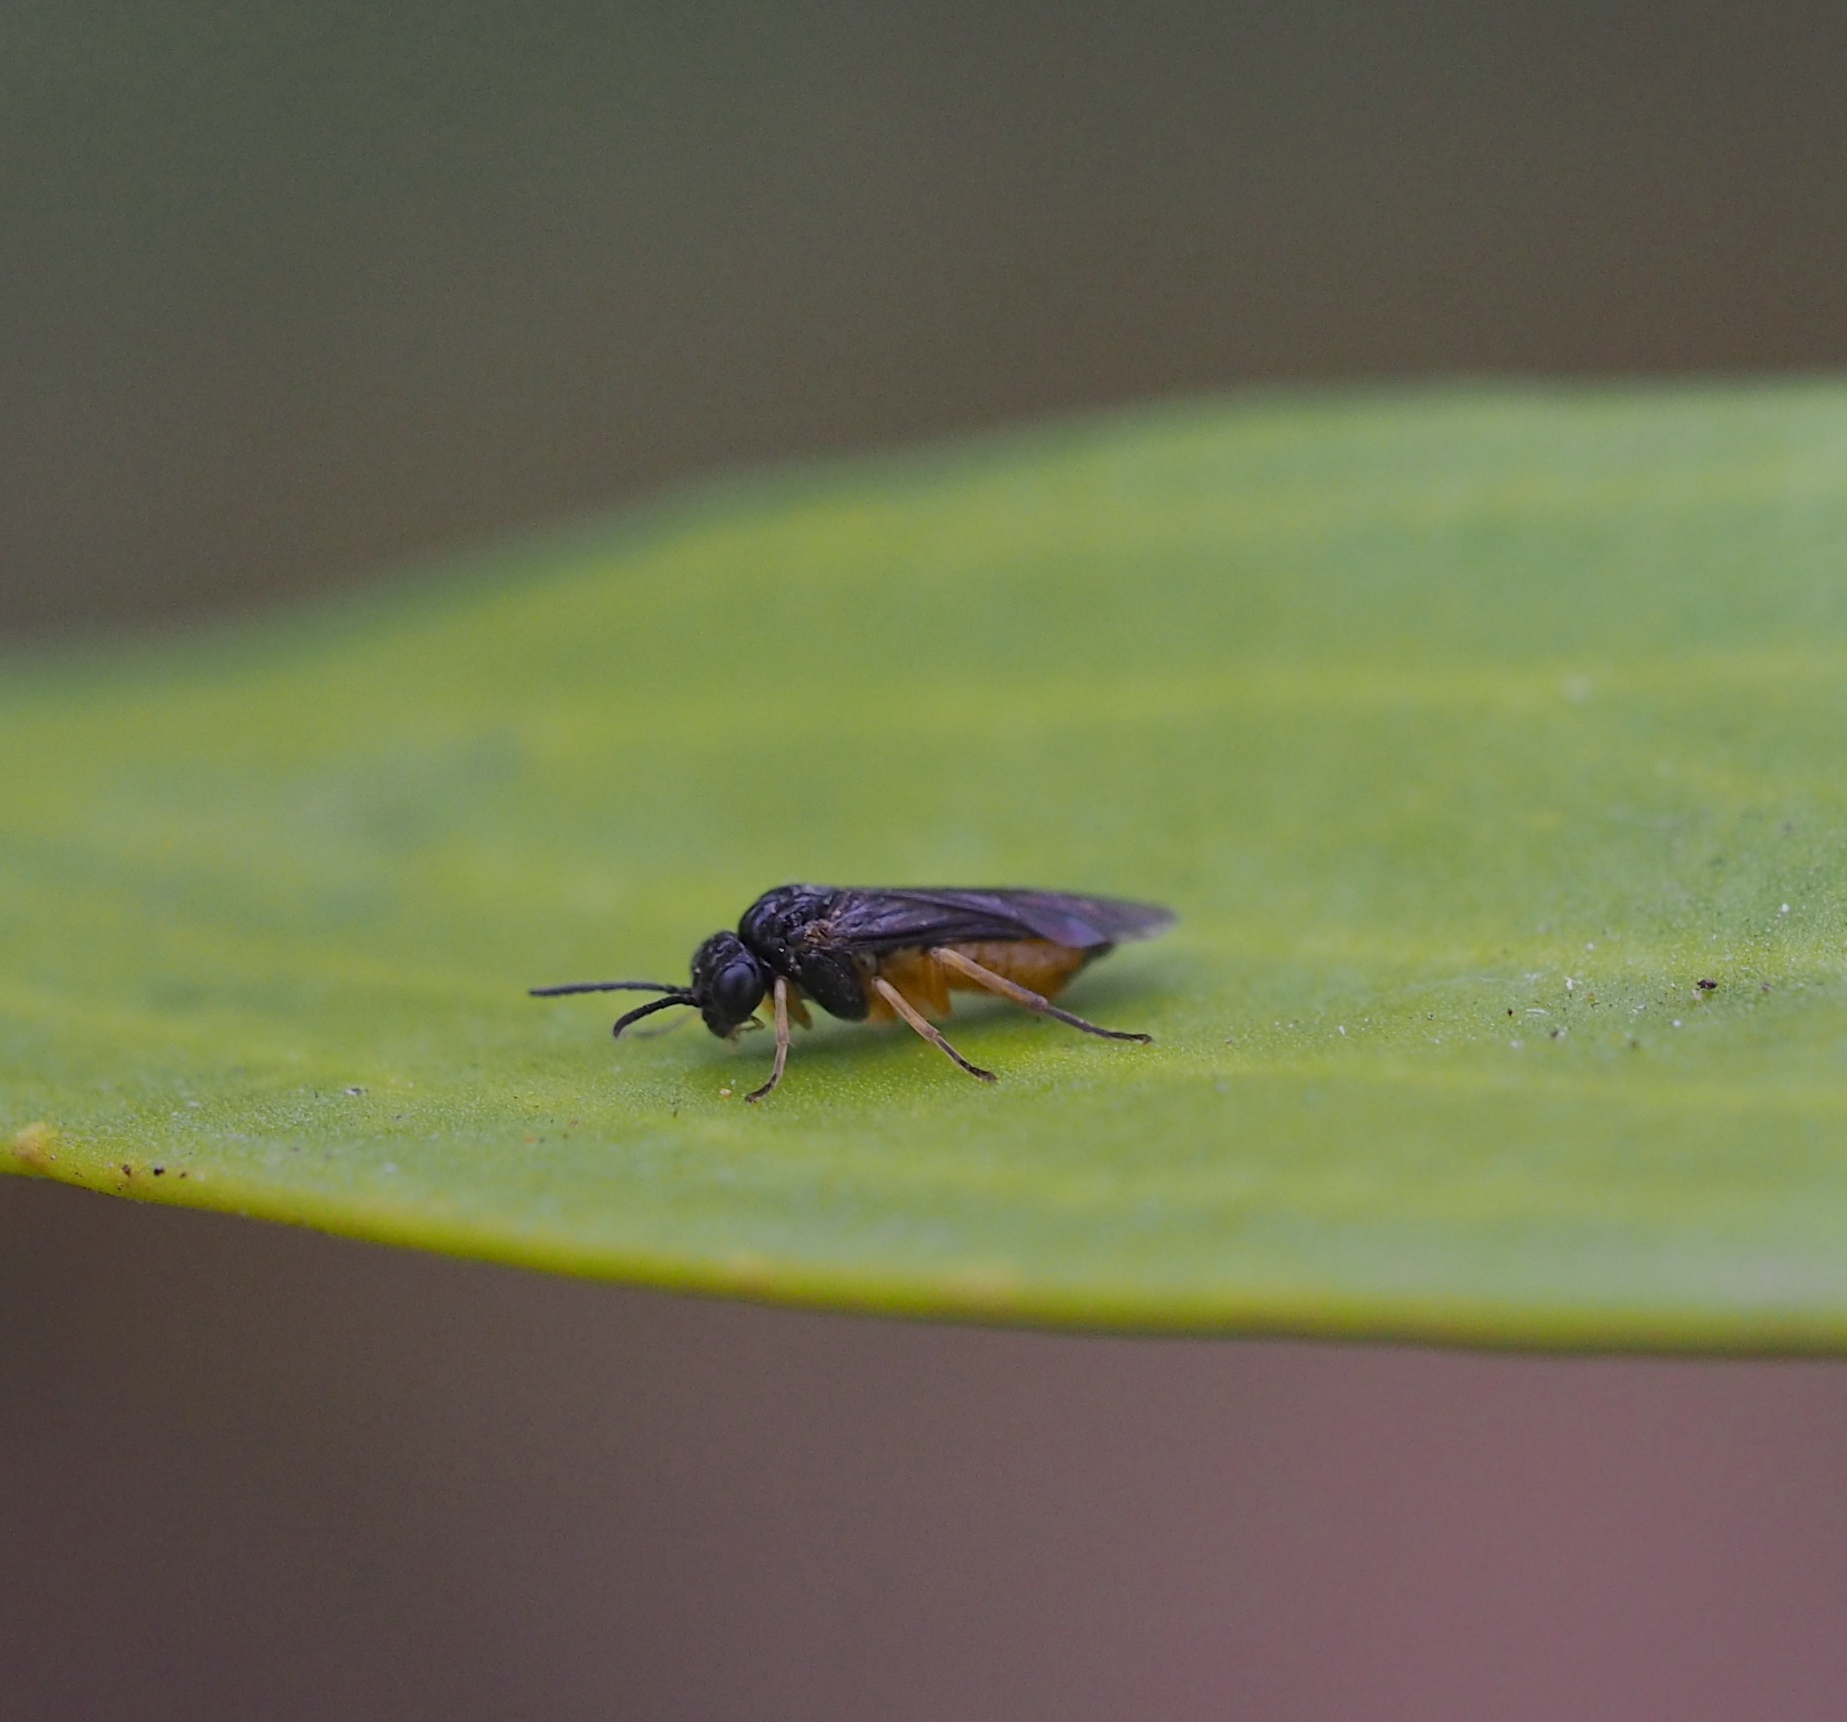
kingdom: Animalia
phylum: Arthropoda
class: Insecta
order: Hymenoptera
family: Tenthredinidae
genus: Eutomostethus
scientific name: Eutomostethus luteiventris
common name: Tenthredid wasp
